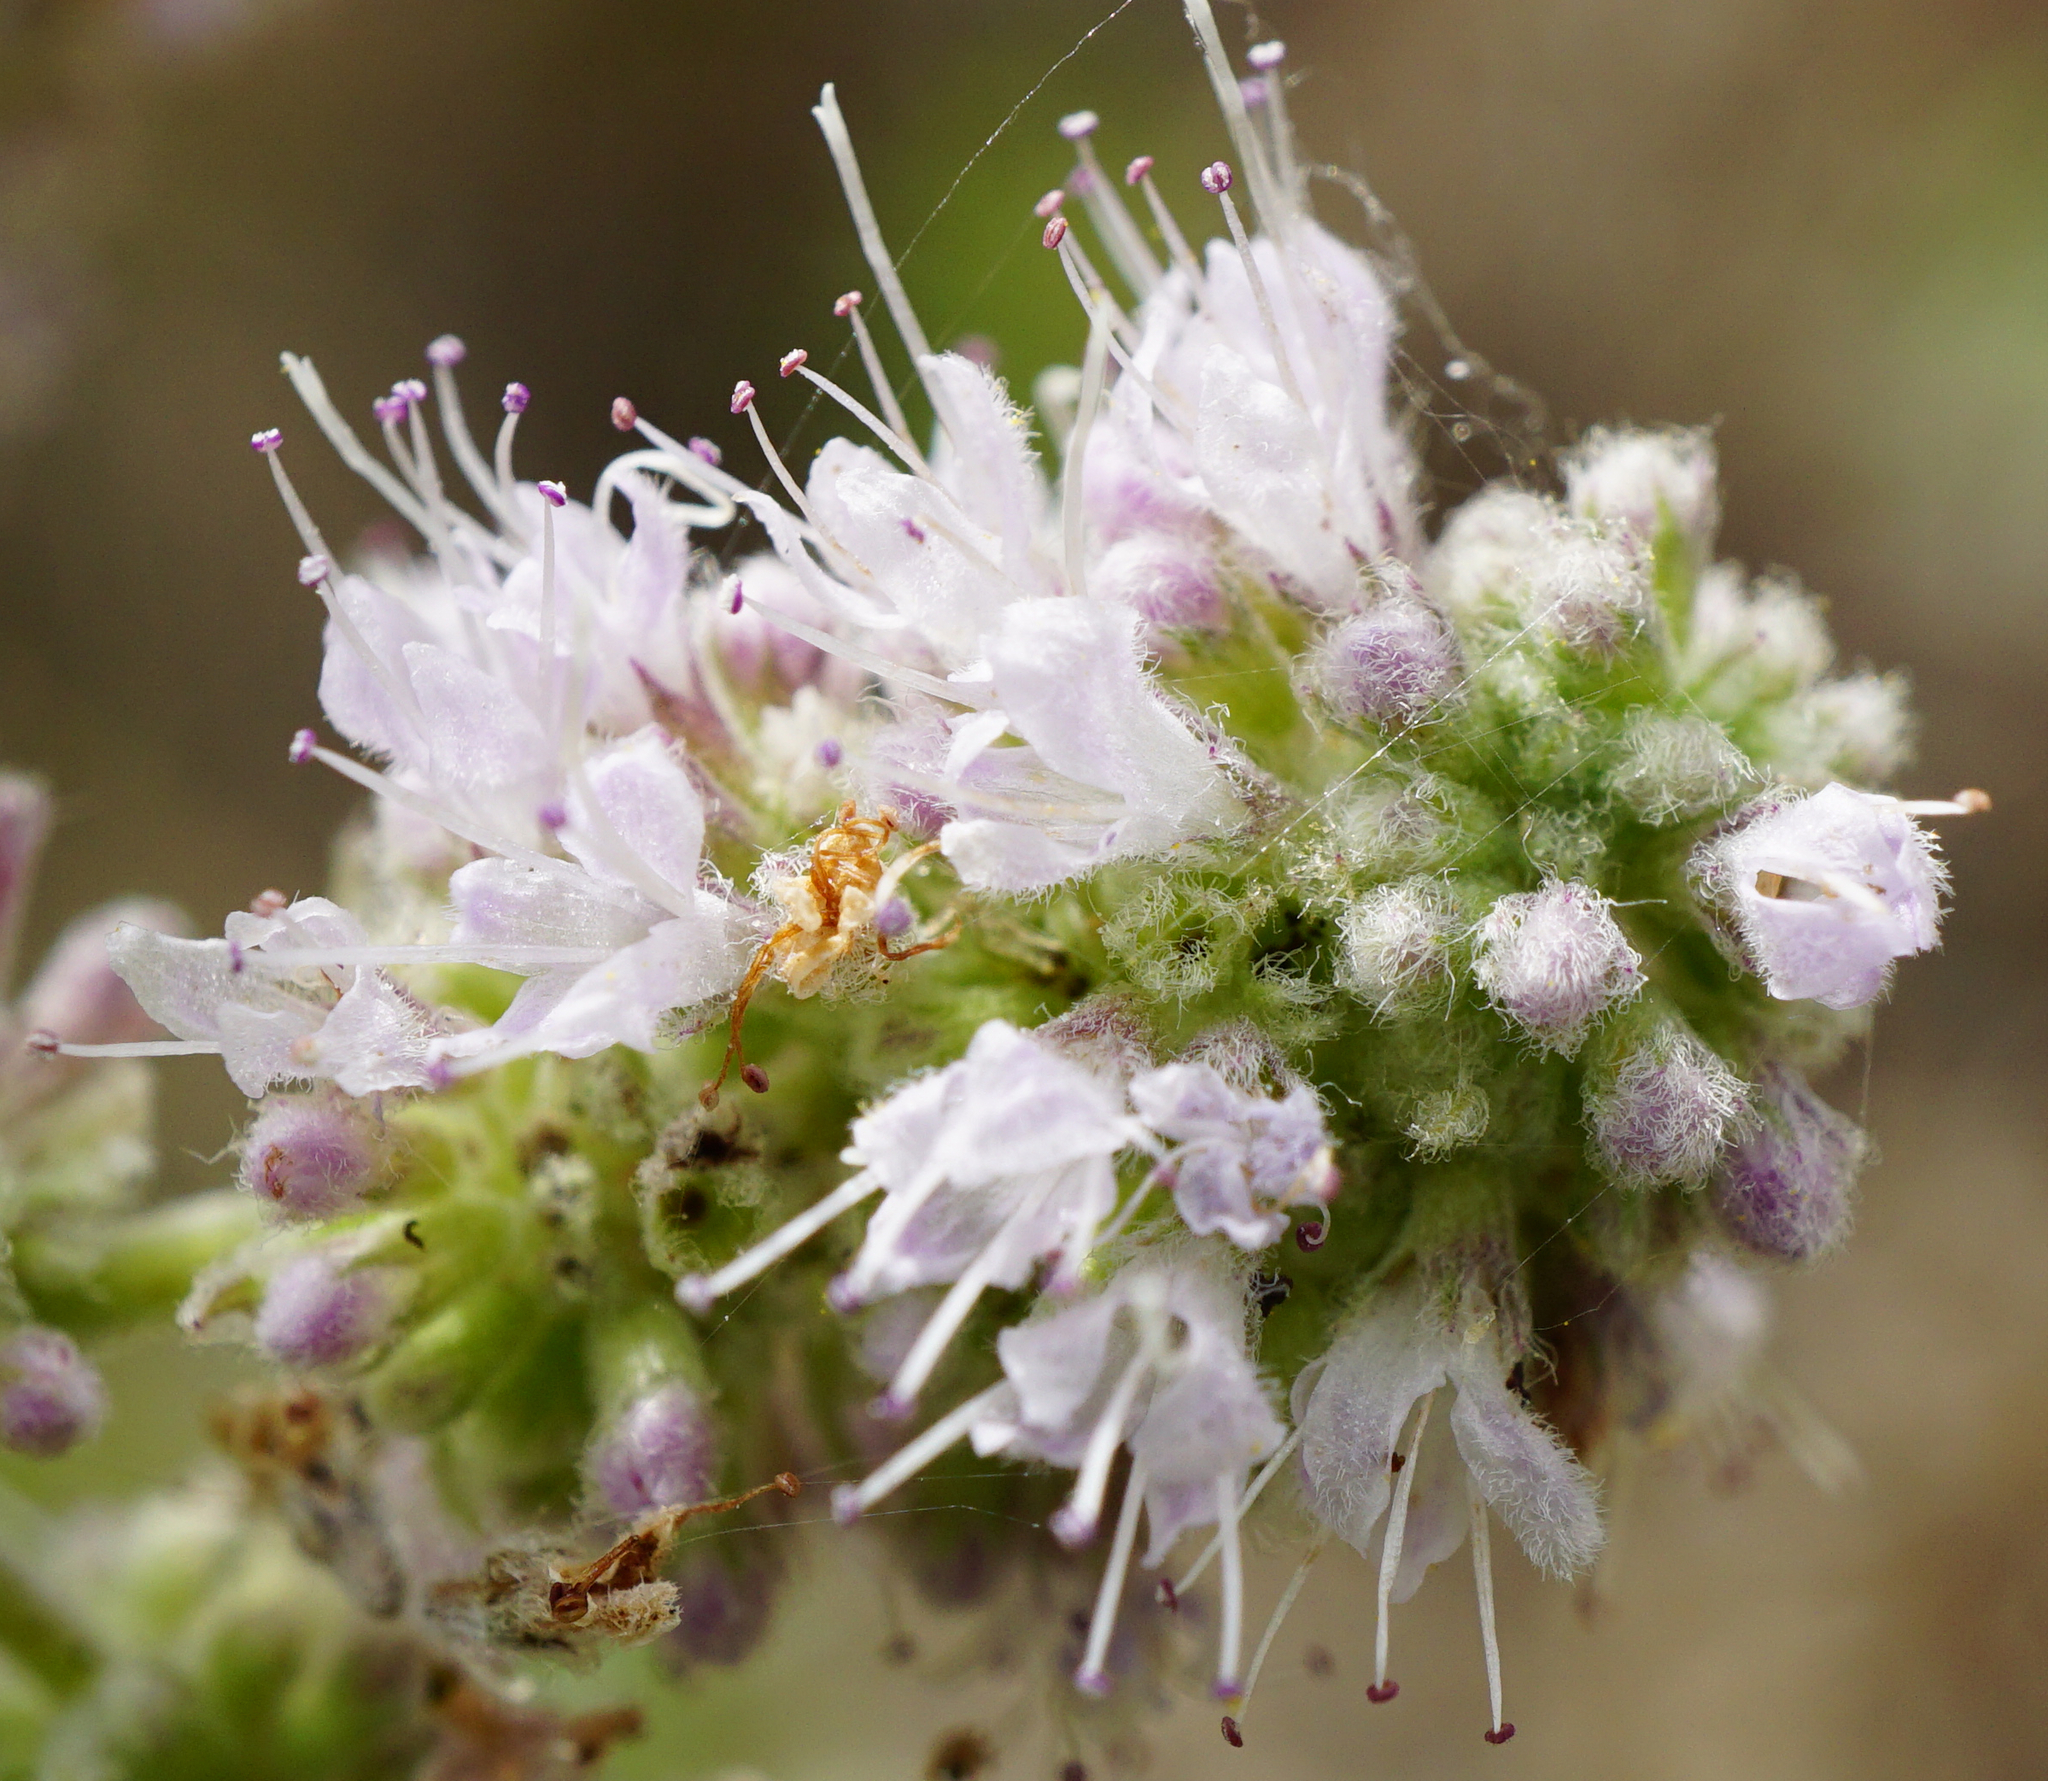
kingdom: Plantae
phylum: Tracheophyta
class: Magnoliopsida
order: Lamiales
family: Lamiaceae
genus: Mentha
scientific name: Mentha longifolia
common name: Horse mint
